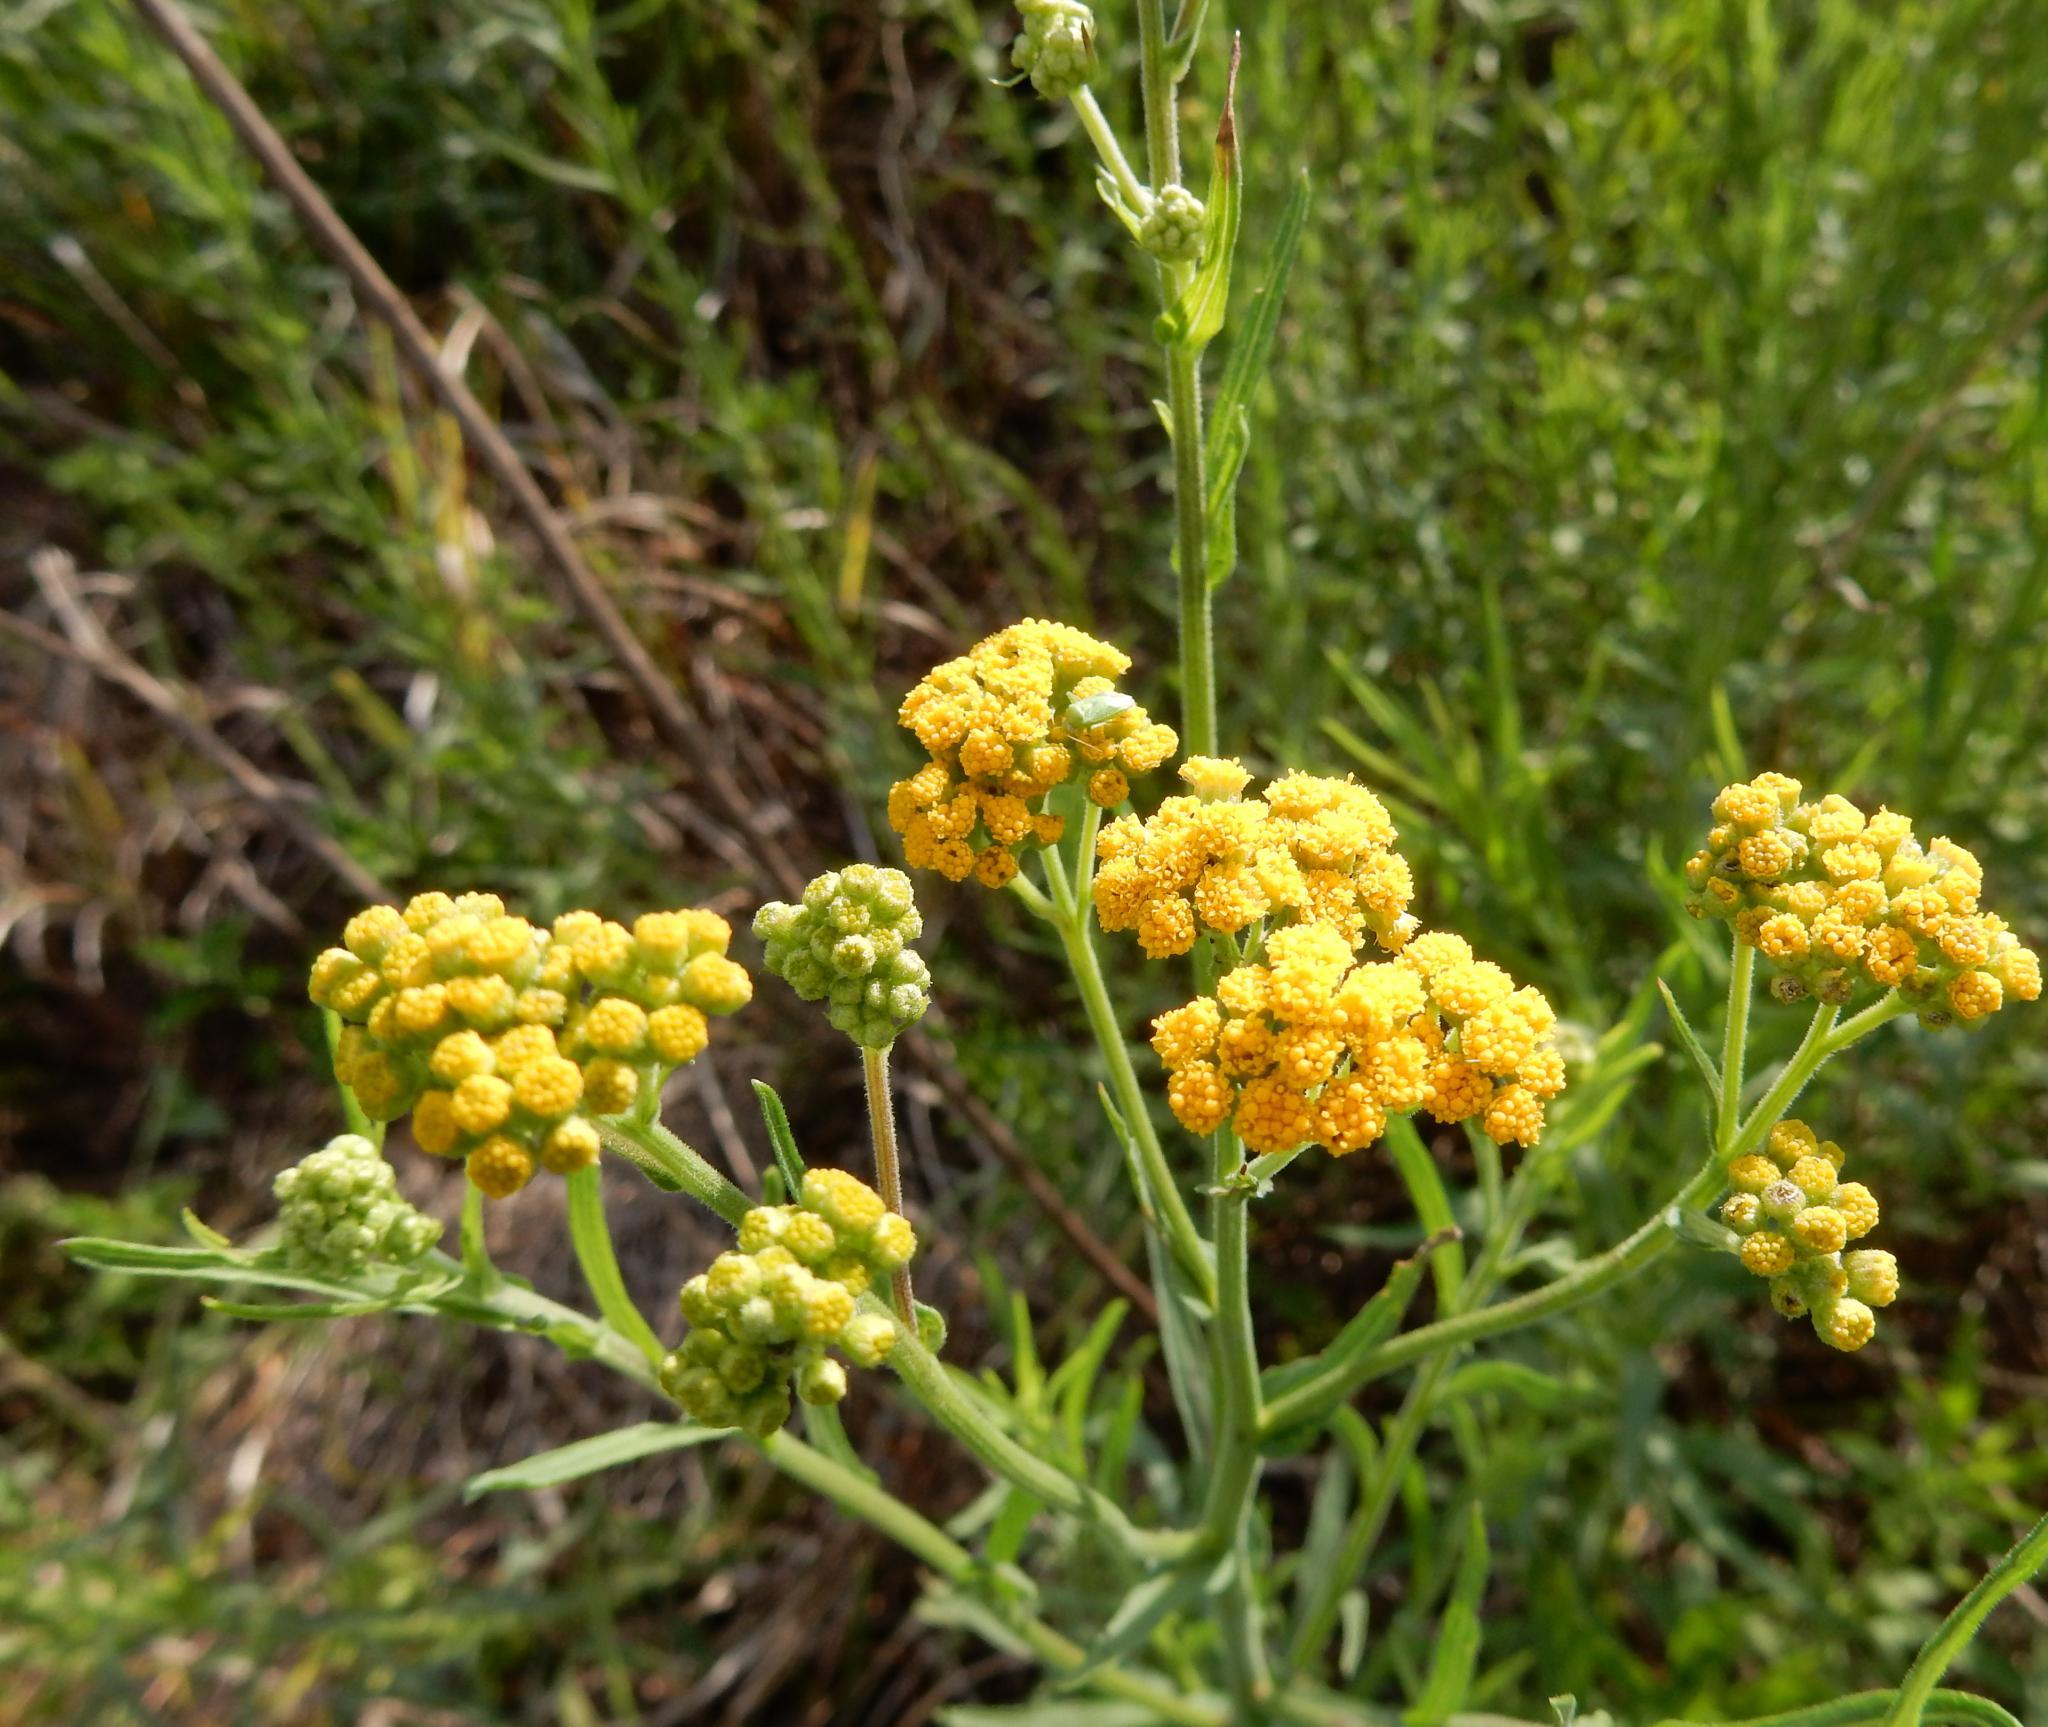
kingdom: Plantae
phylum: Tracheophyta
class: Magnoliopsida
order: Asterales
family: Asteraceae
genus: Nidorella
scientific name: Nidorella anomala
